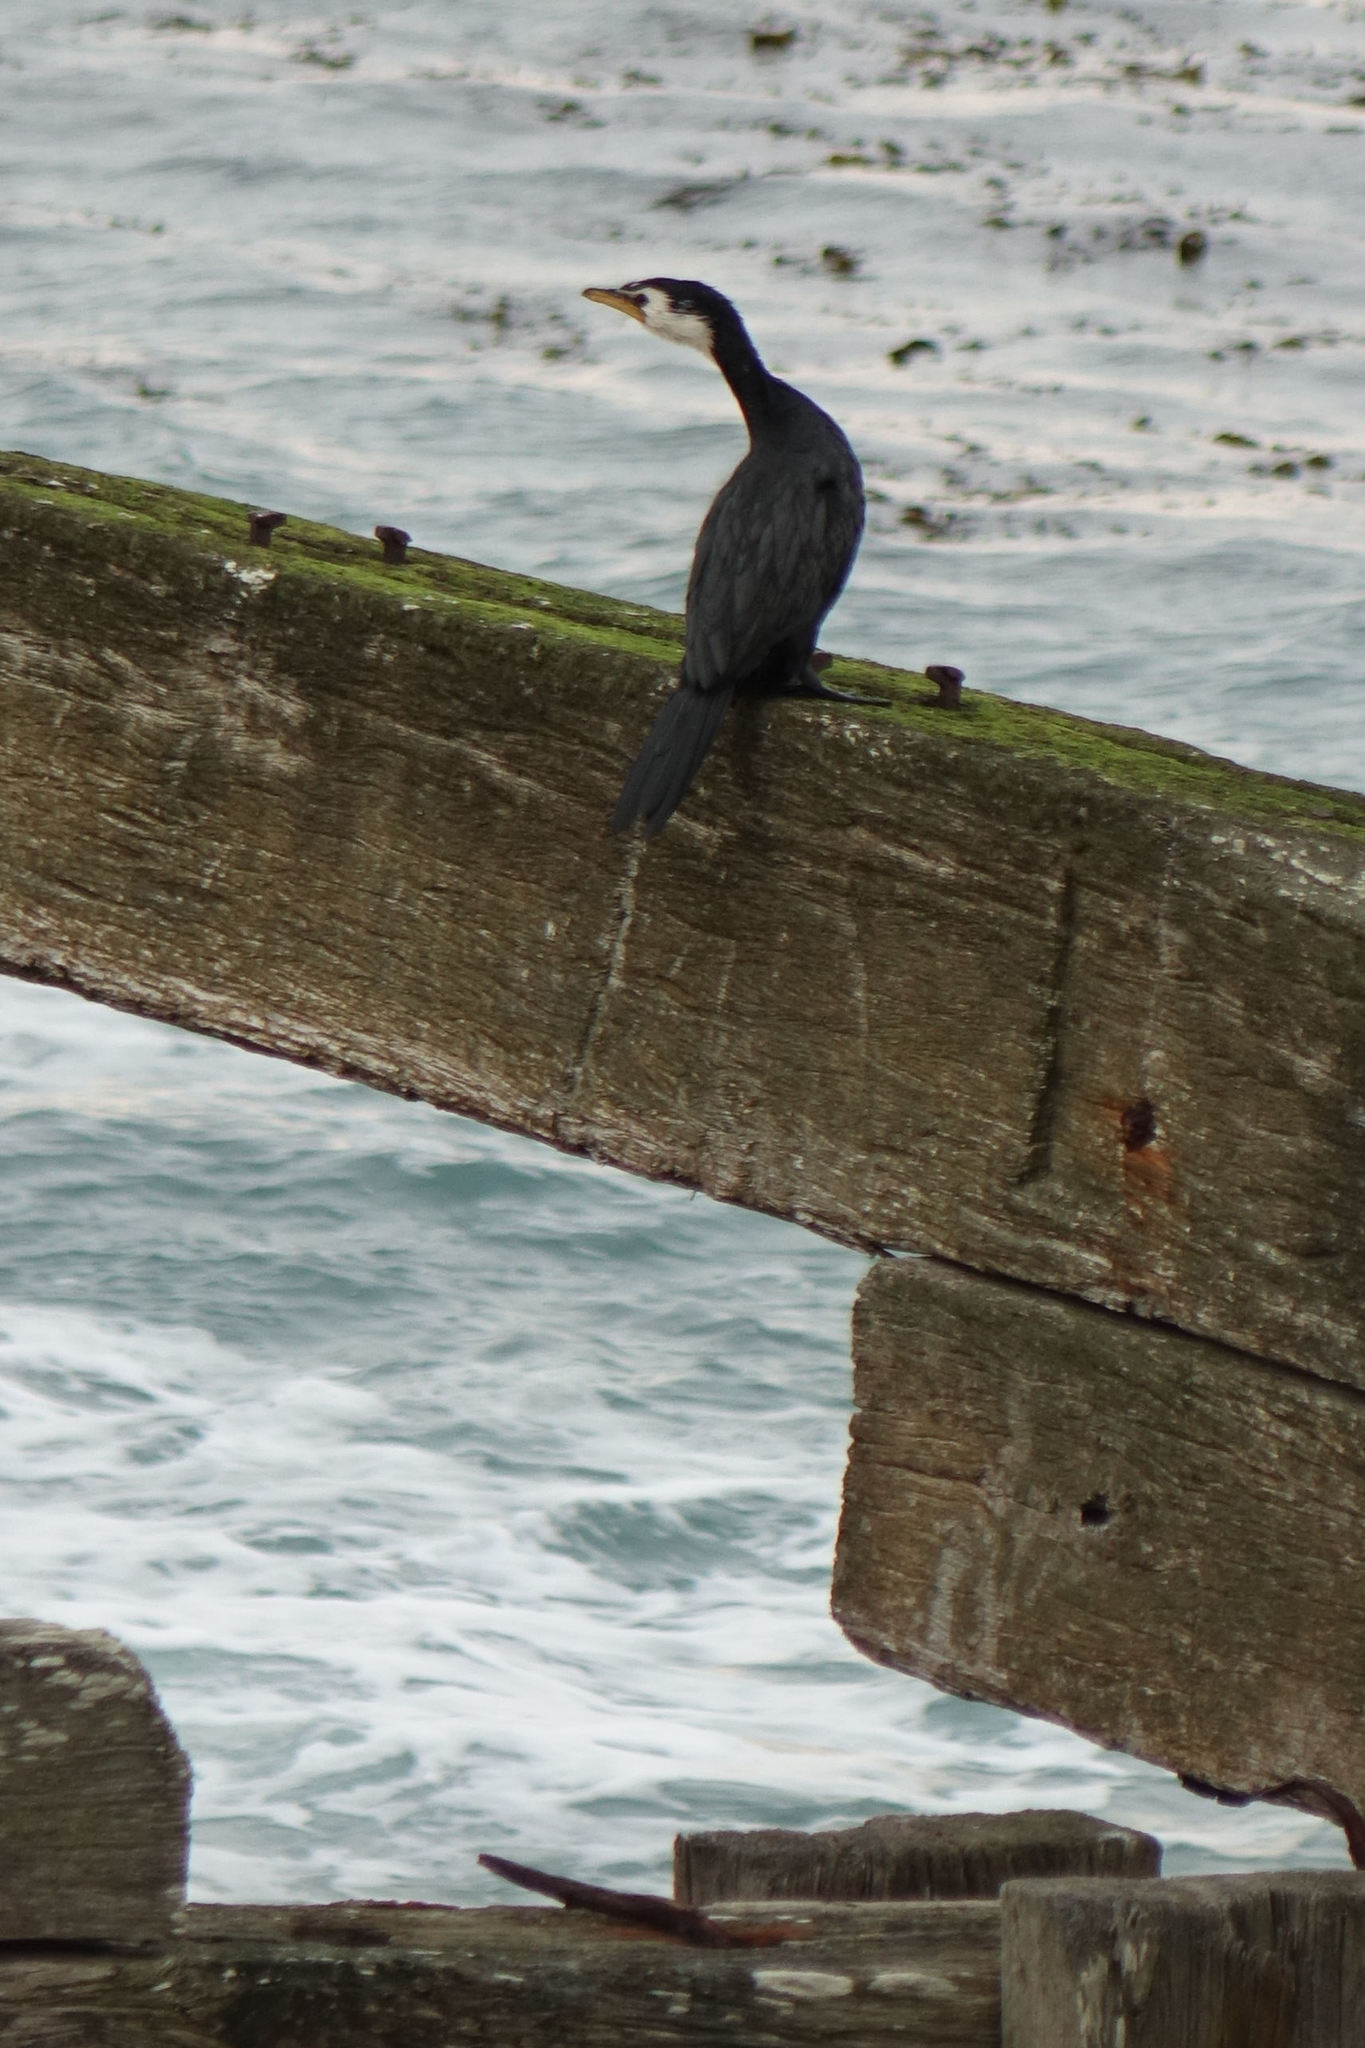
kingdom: Animalia
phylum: Chordata
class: Aves
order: Suliformes
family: Phalacrocoracidae
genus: Microcarbo
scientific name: Microcarbo melanoleucos
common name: Little pied cormorant
